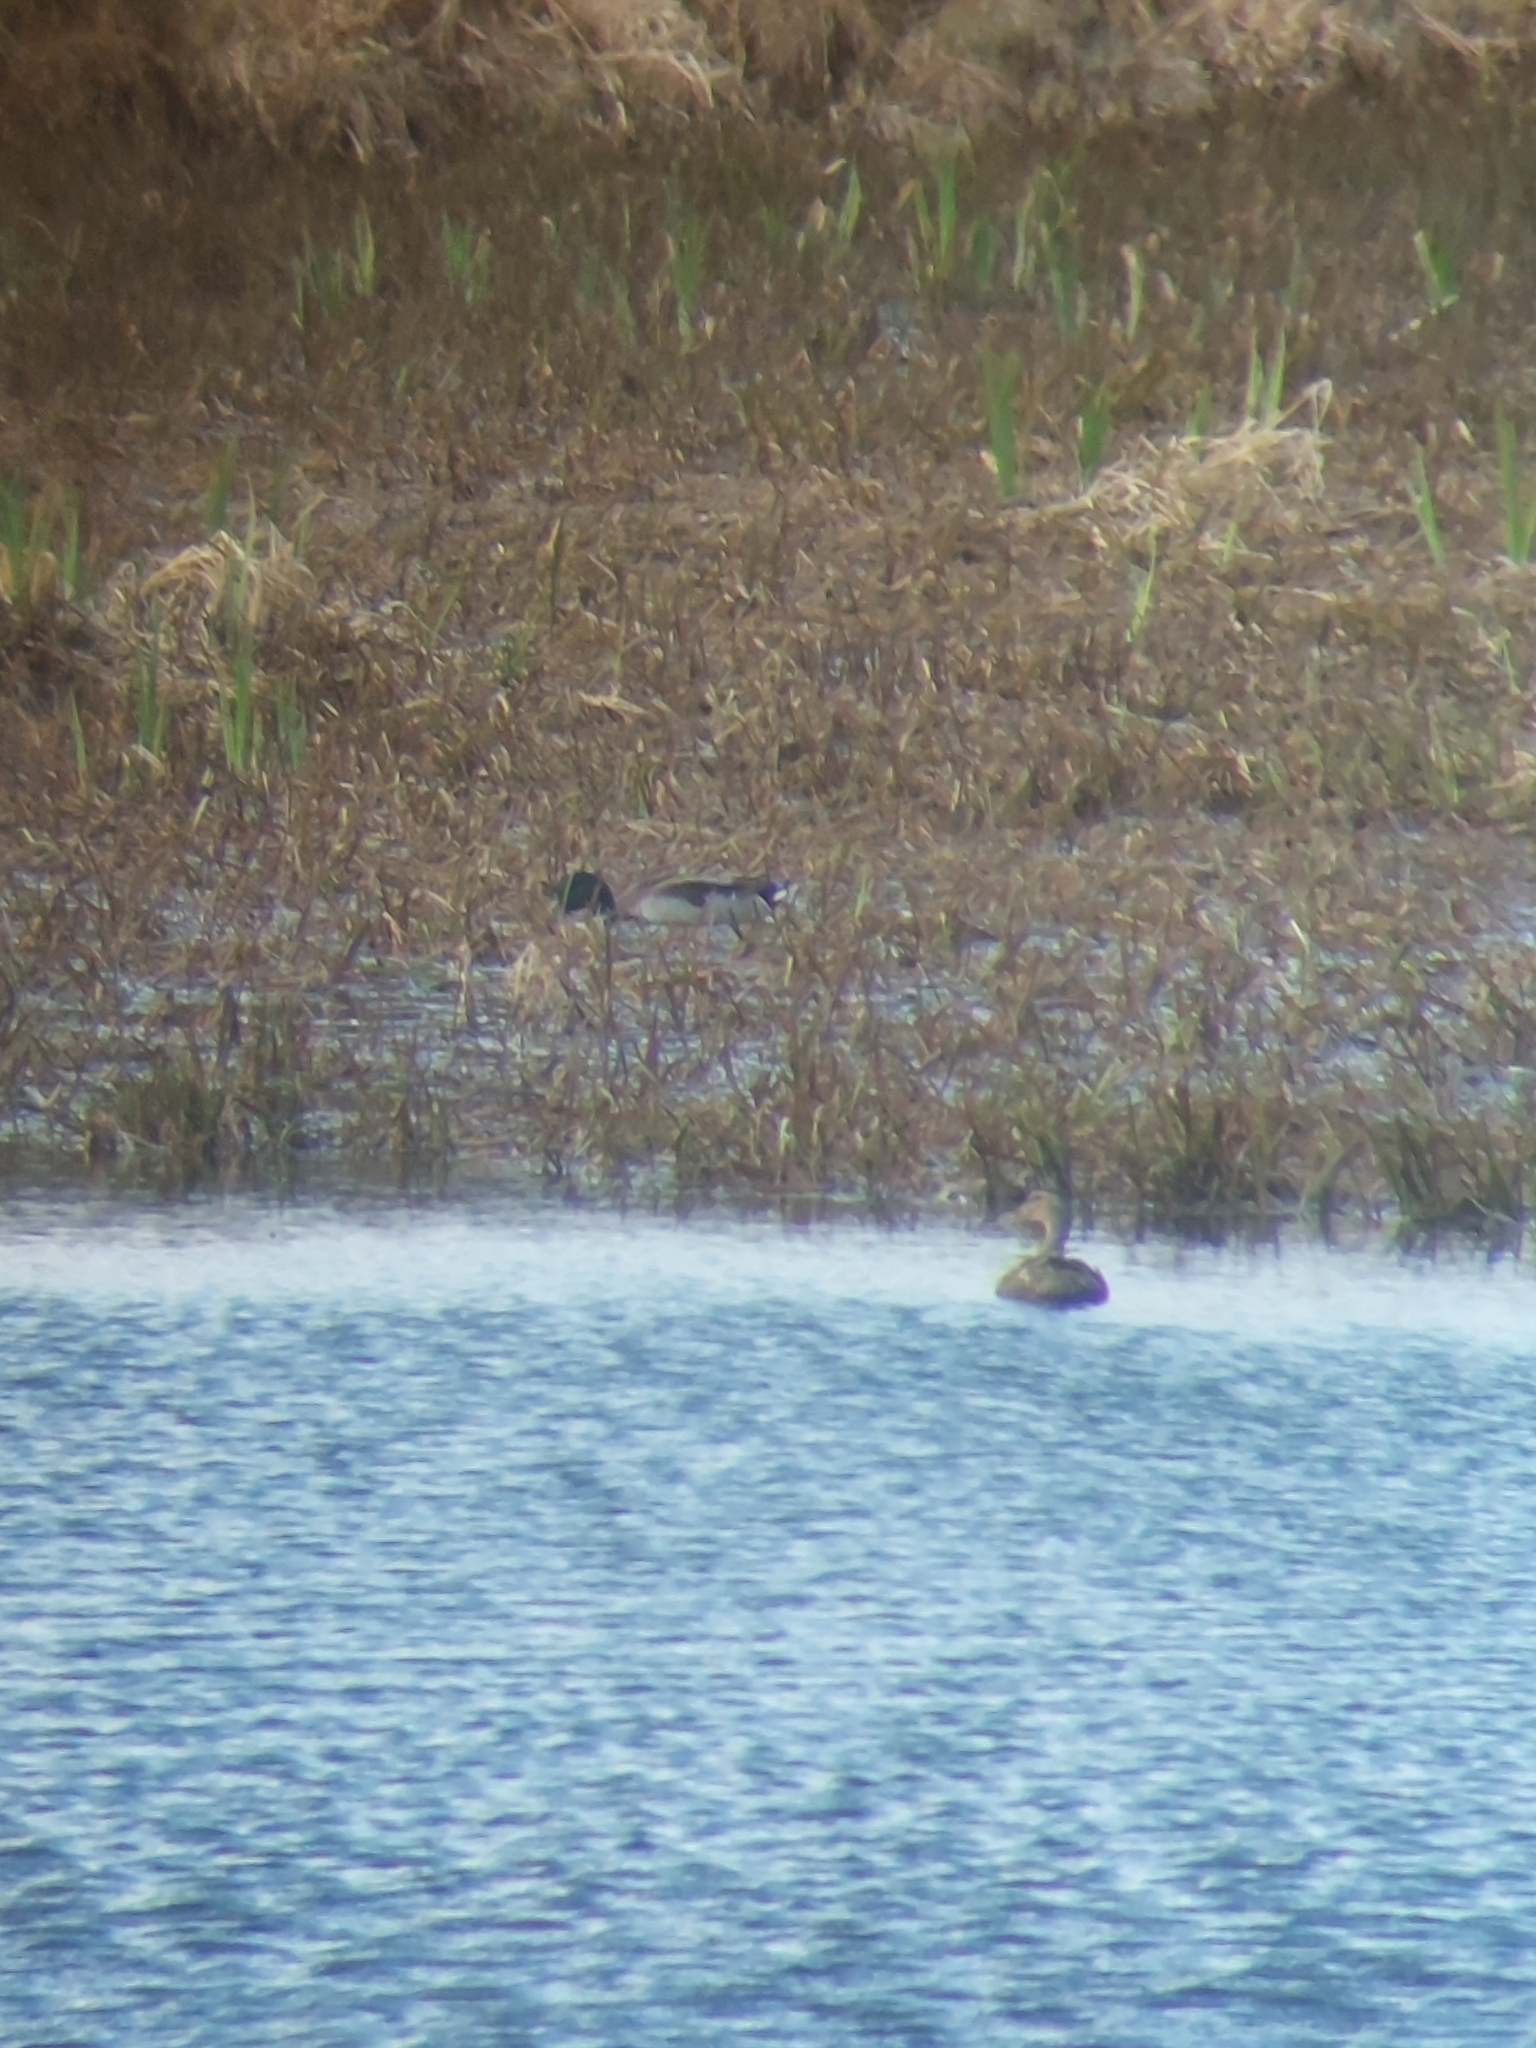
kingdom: Animalia
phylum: Chordata
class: Aves
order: Anseriformes
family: Anatidae
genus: Anas
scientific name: Anas platyrhynchos
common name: Mallard
